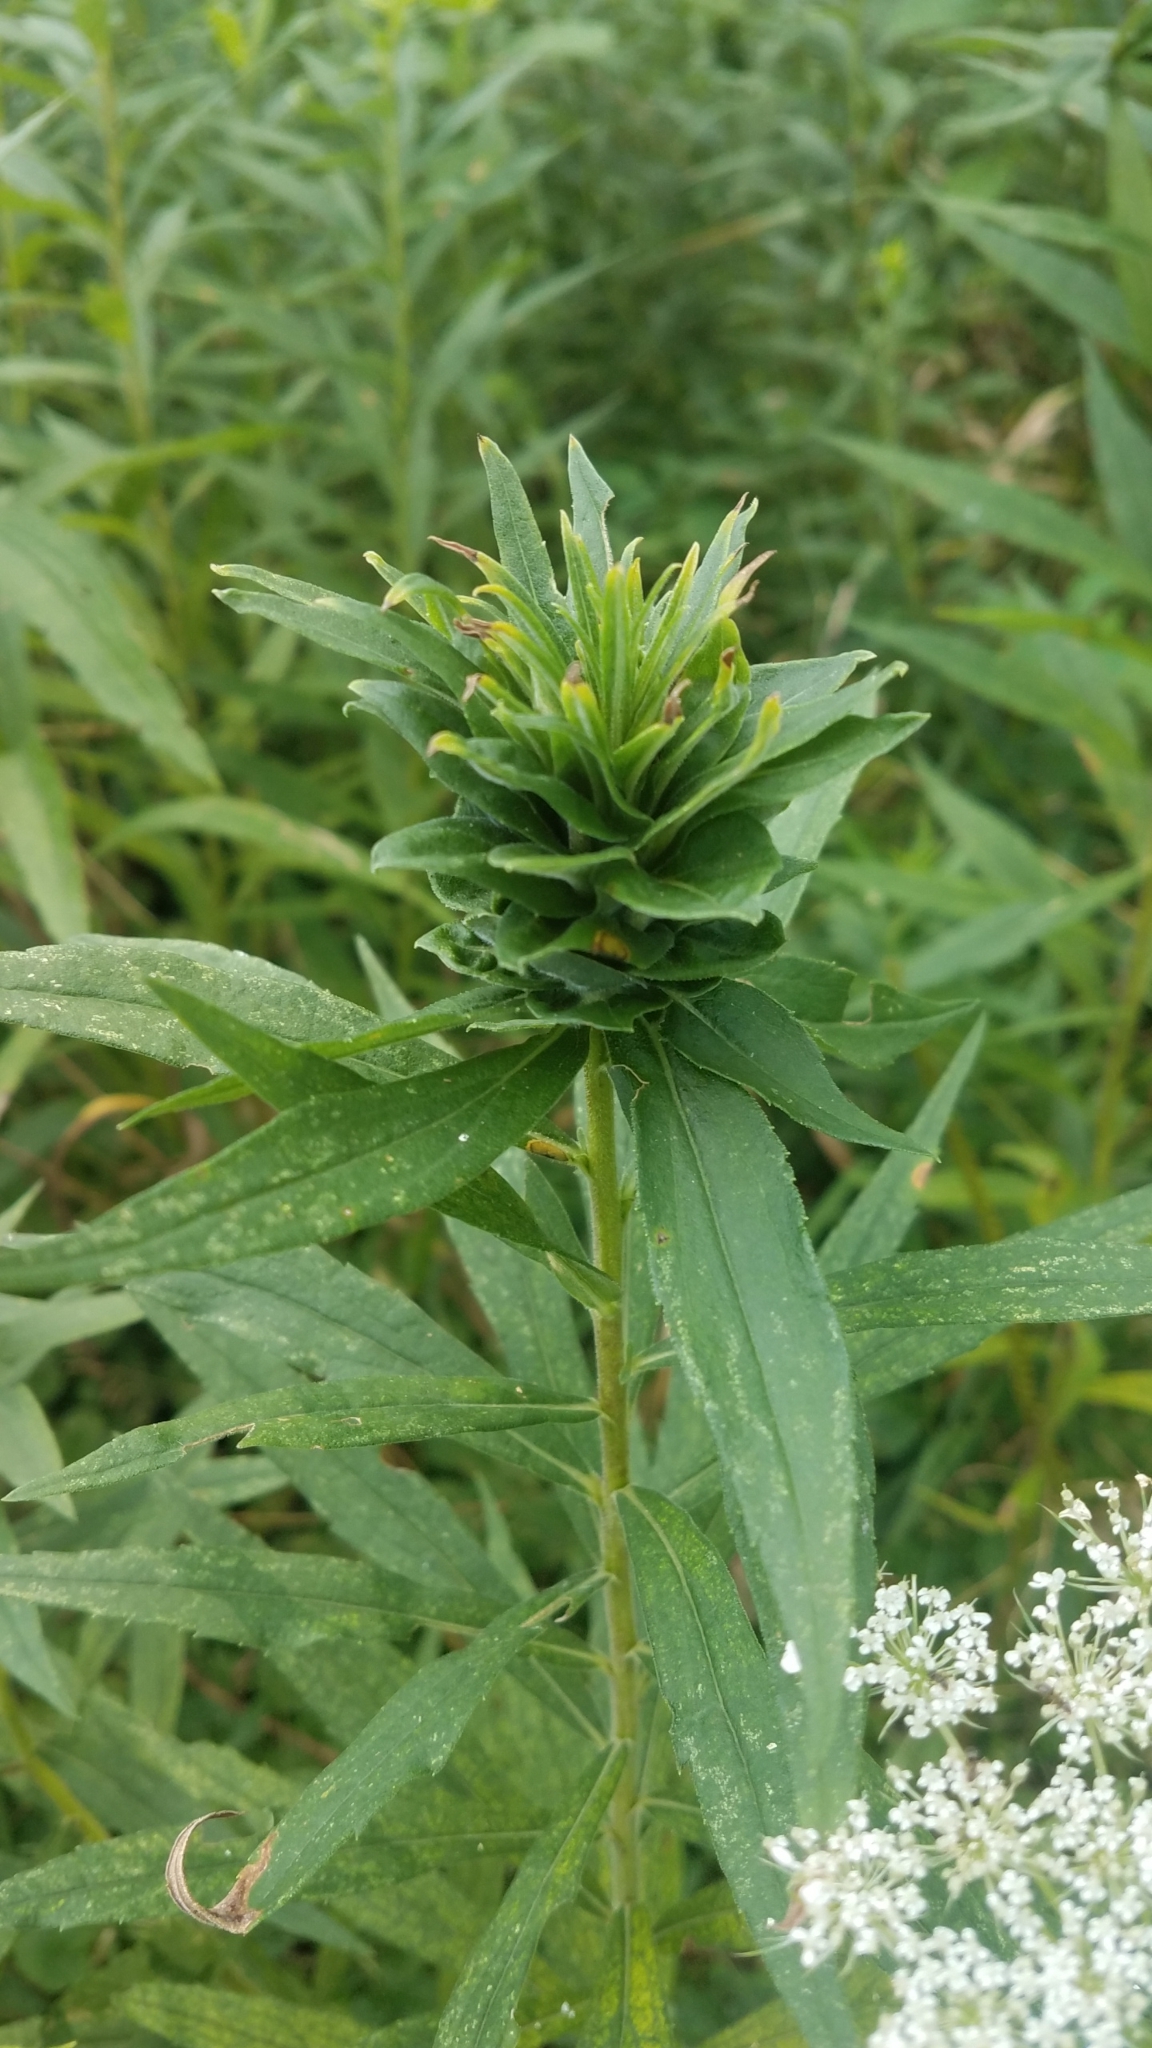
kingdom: Animalia
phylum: Arthropoda
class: Insecta
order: Diptera
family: Cecidomyiidae
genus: Rhopalomyia
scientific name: Rhopalomyia solidaginis
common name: Goldenrod bunch gall midge
